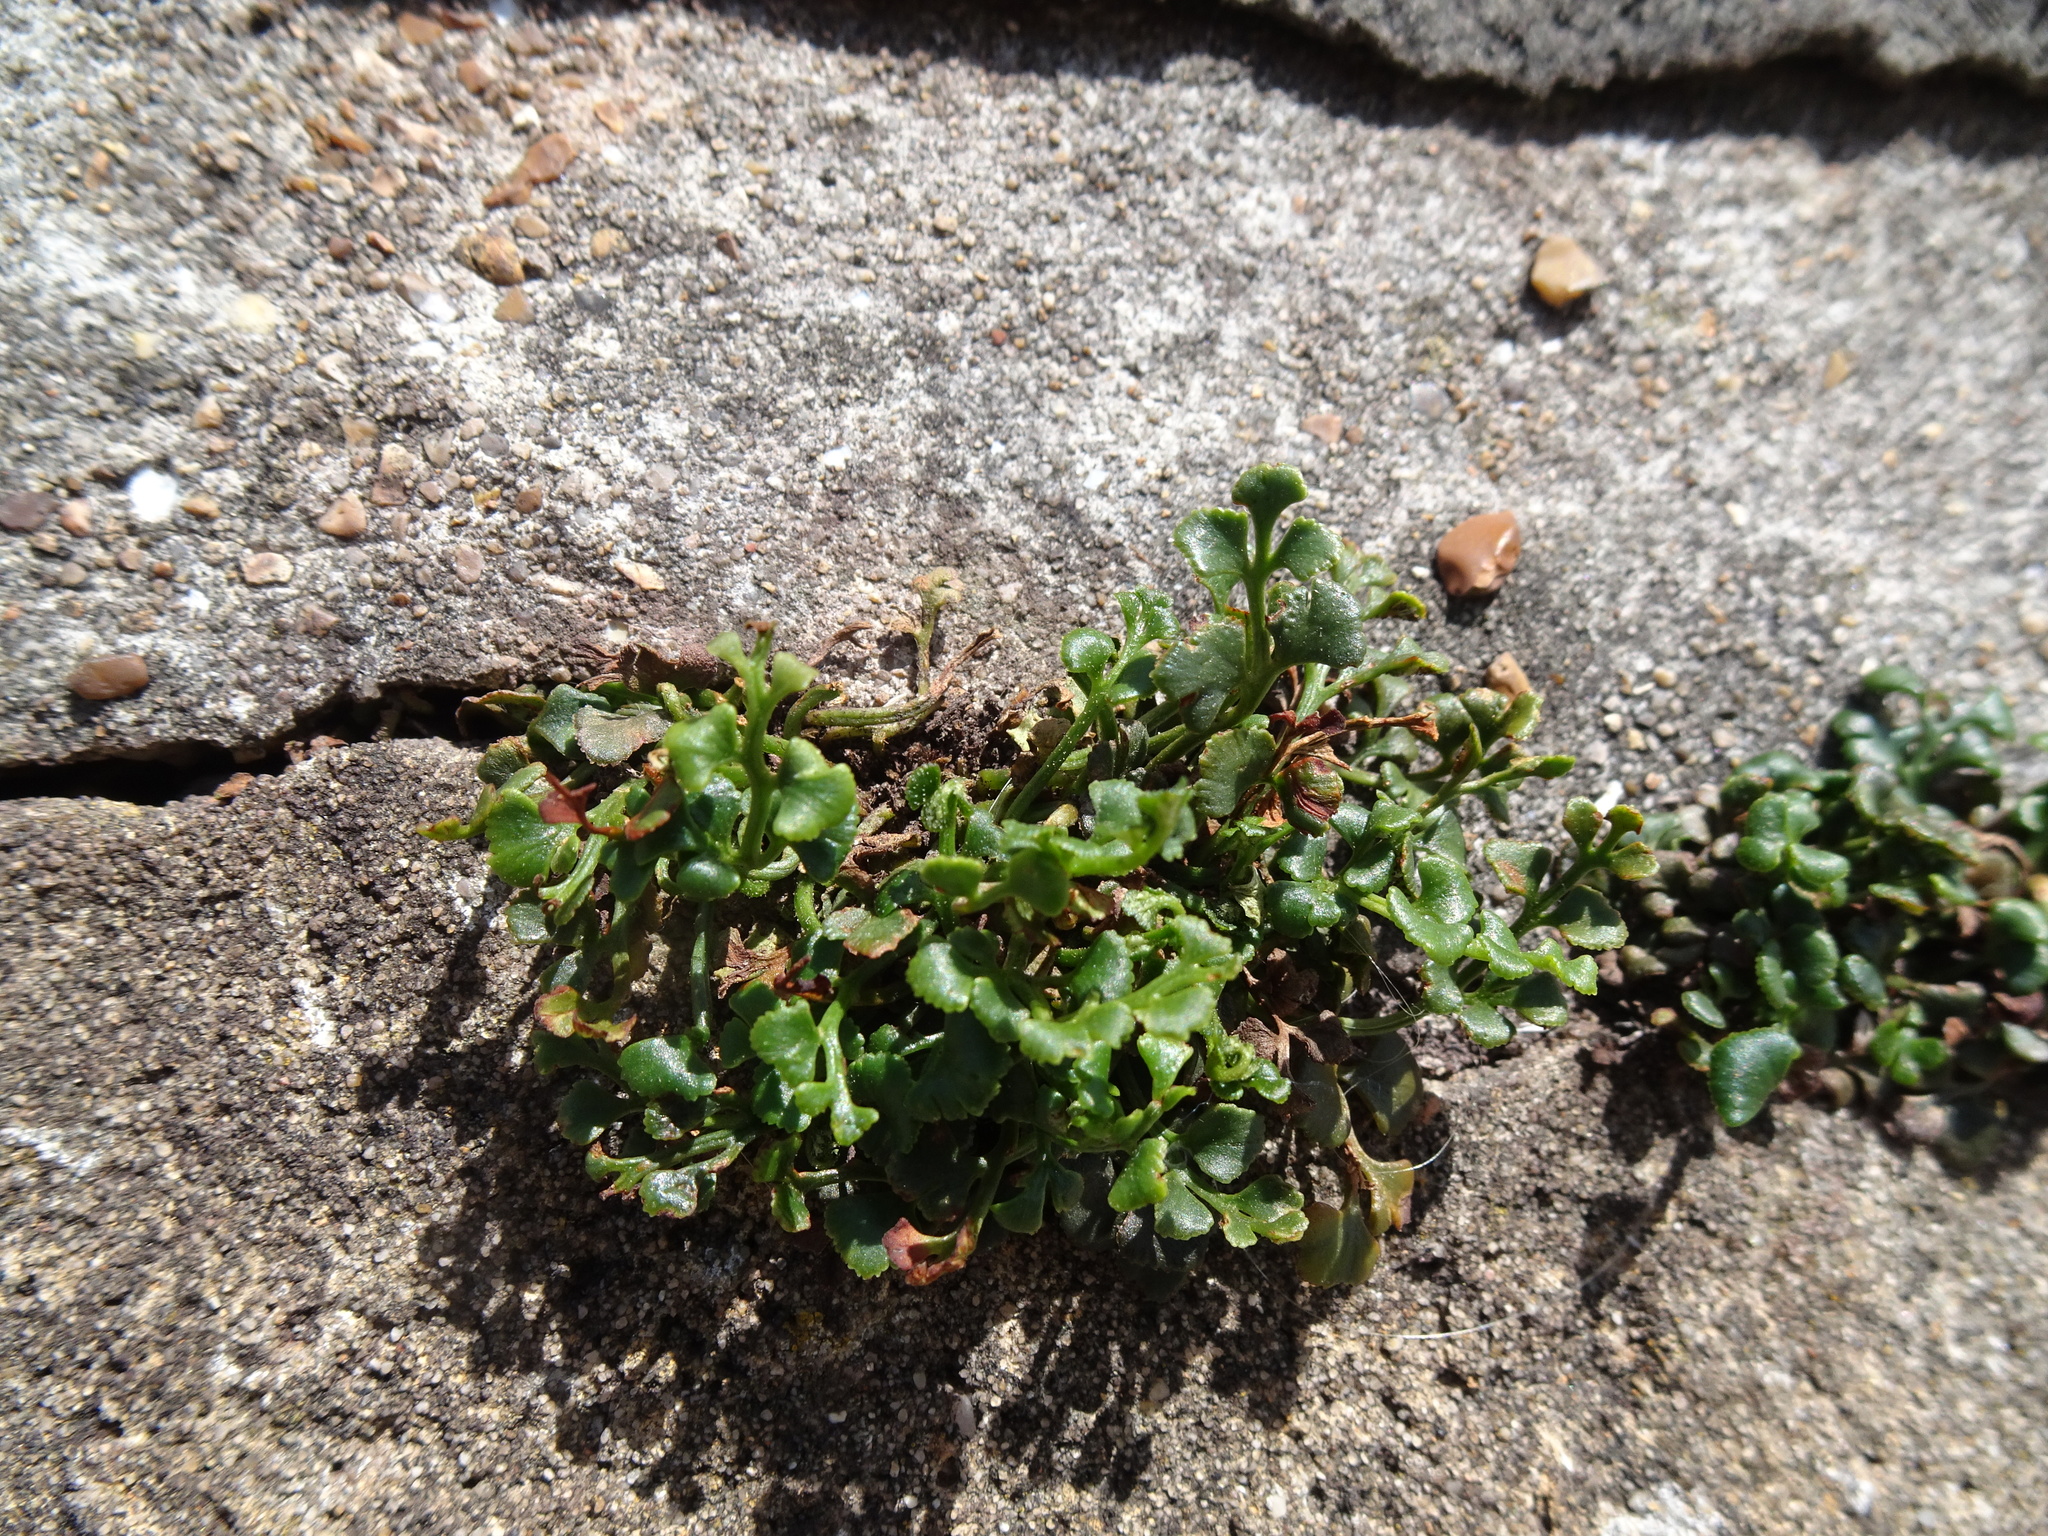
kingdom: Plantae
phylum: Tracheophyta
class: Polypodiopsida
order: Polypodiales
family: Aspleniaceae
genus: Asplenium
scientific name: Asplenium ruta-muraria
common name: Wall-rue
